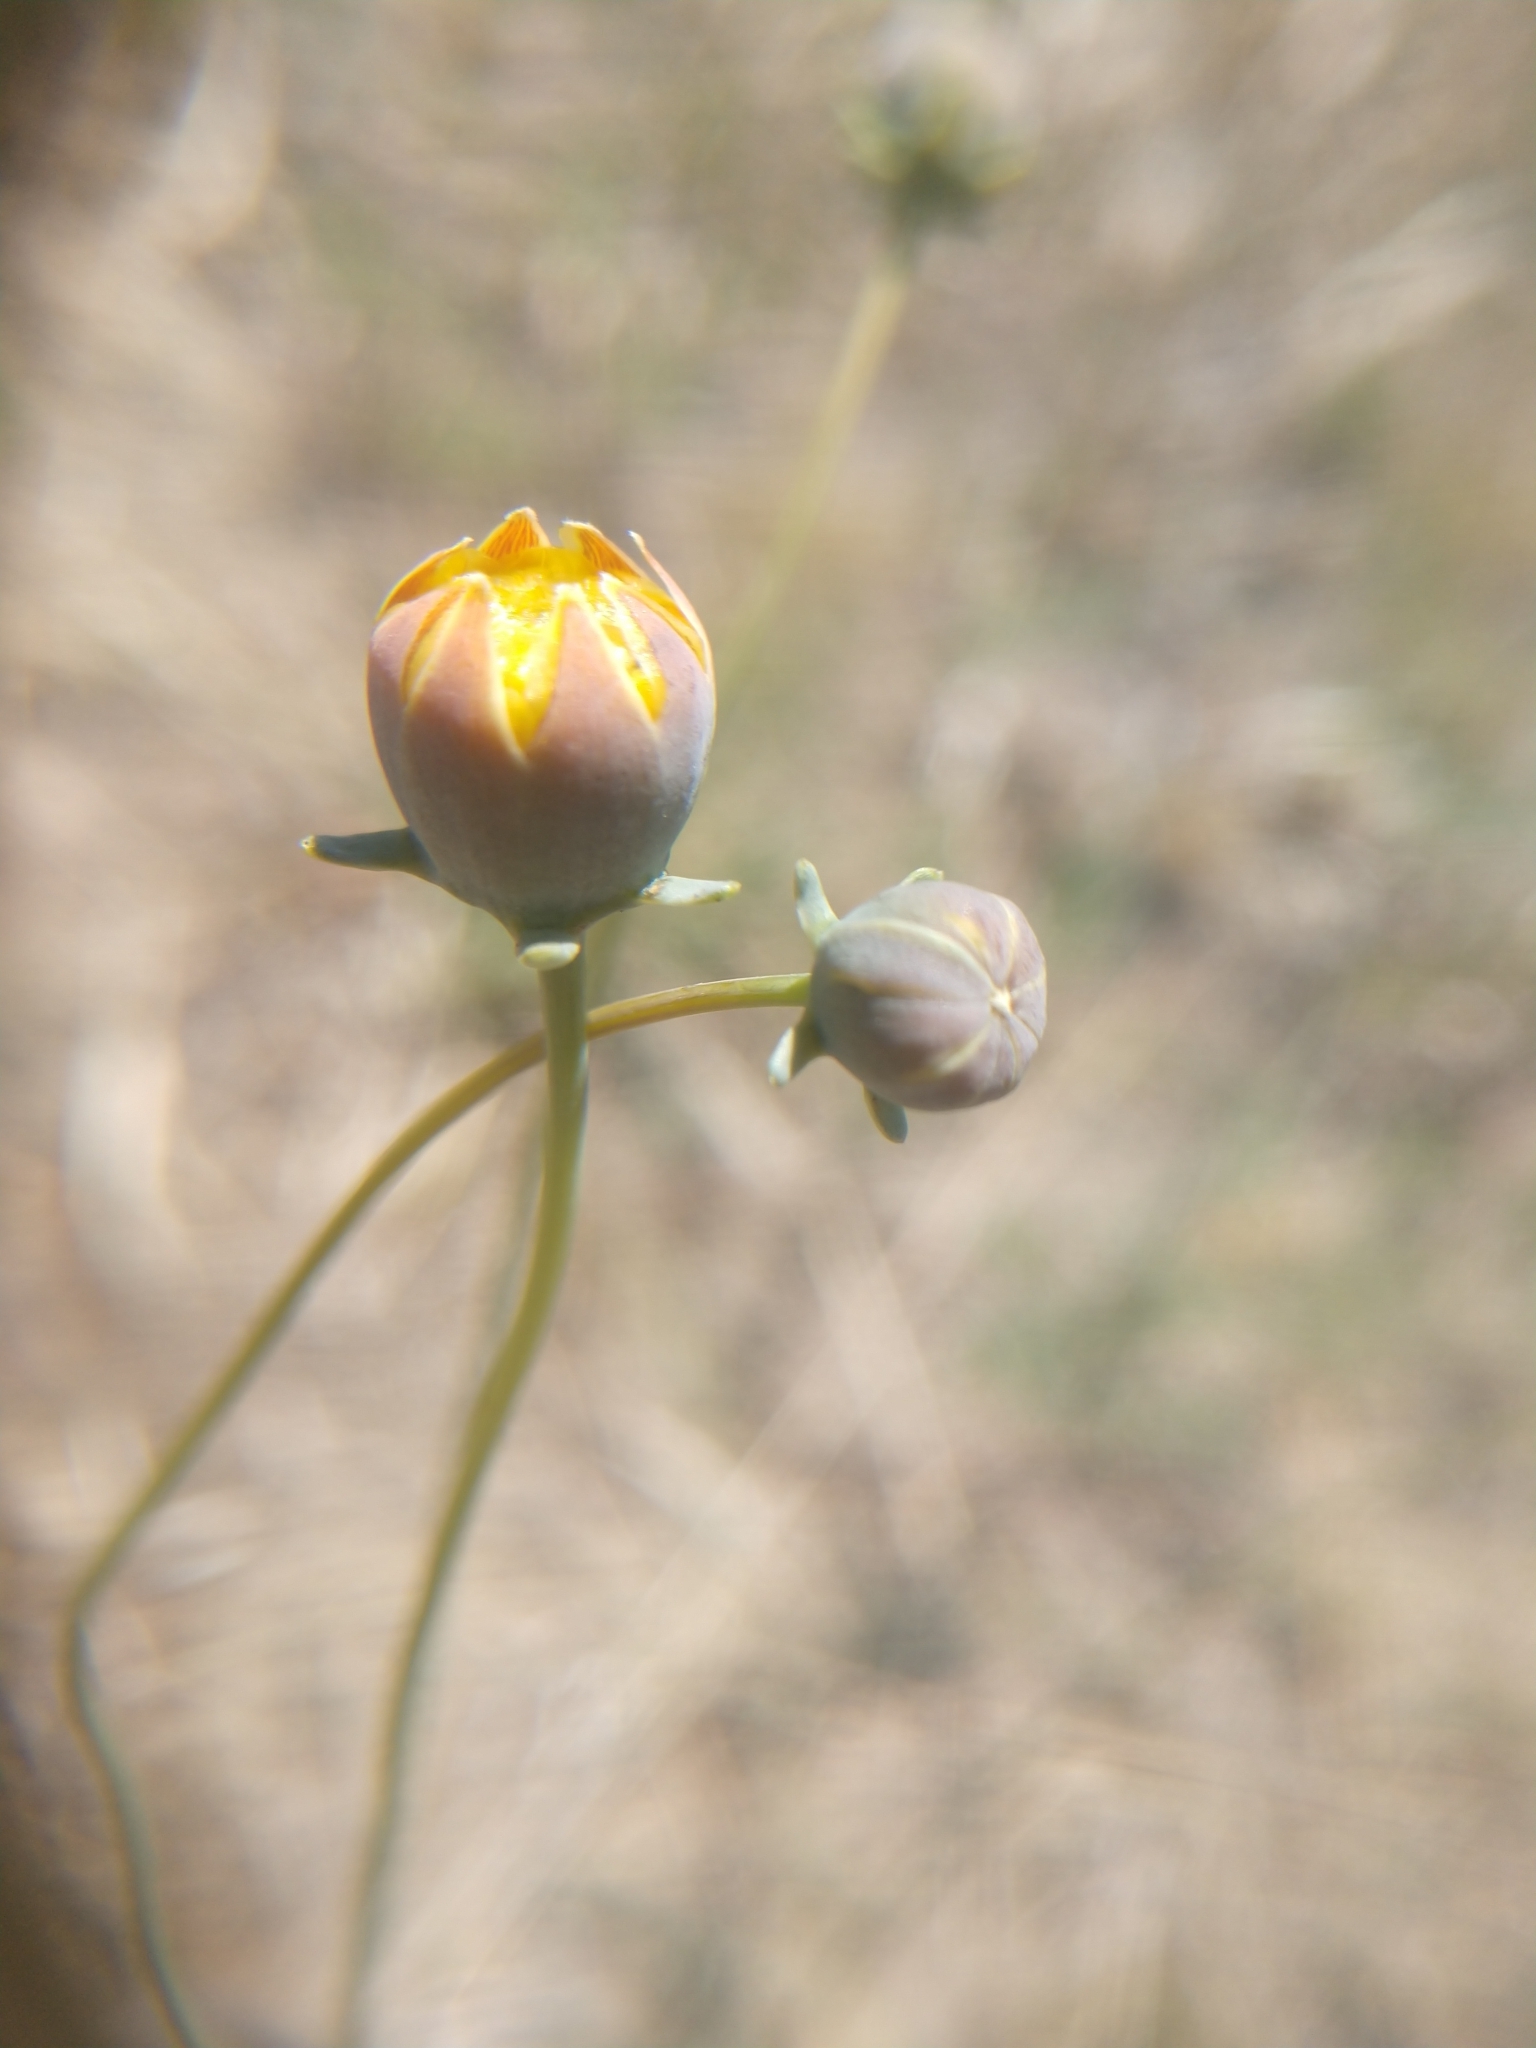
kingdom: Plantae
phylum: Tracheophyta
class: Magnoliopsida
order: Asterales
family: Asteraceae
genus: Thelesperma
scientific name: Thelesperma megapotamicum
